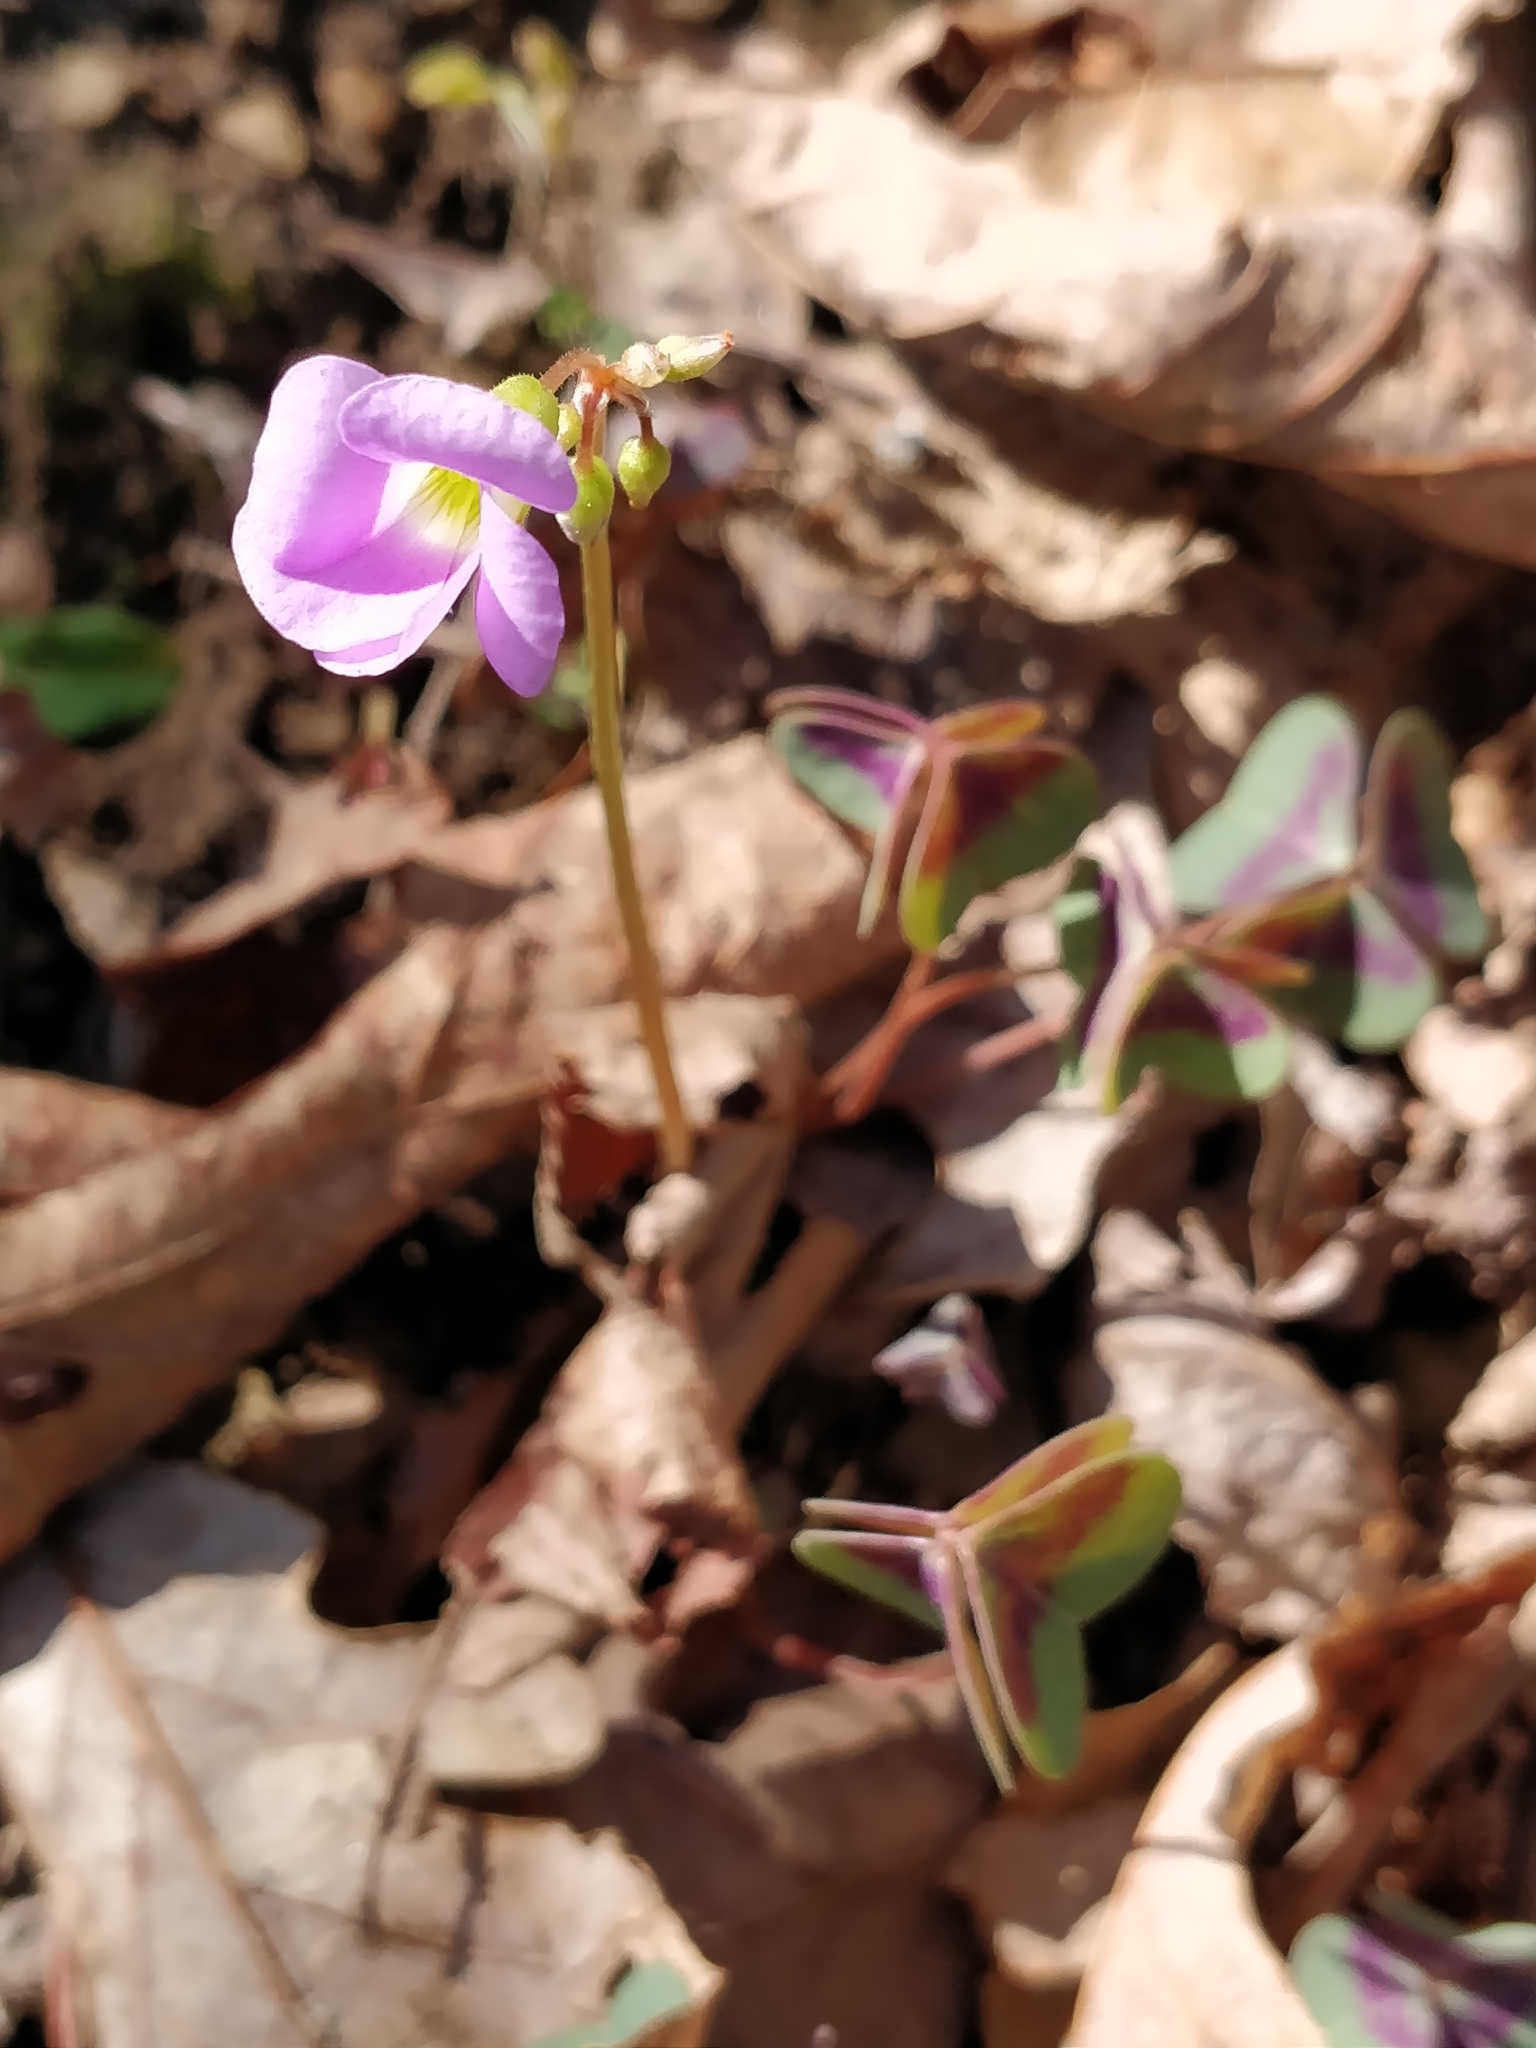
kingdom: Plantae
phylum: Tracheophyta
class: Magnoliopsida
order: Oxalidales
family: Oxalidaceae
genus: Oxalis
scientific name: Oxalis violacea
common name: Violet wood-sorrel
